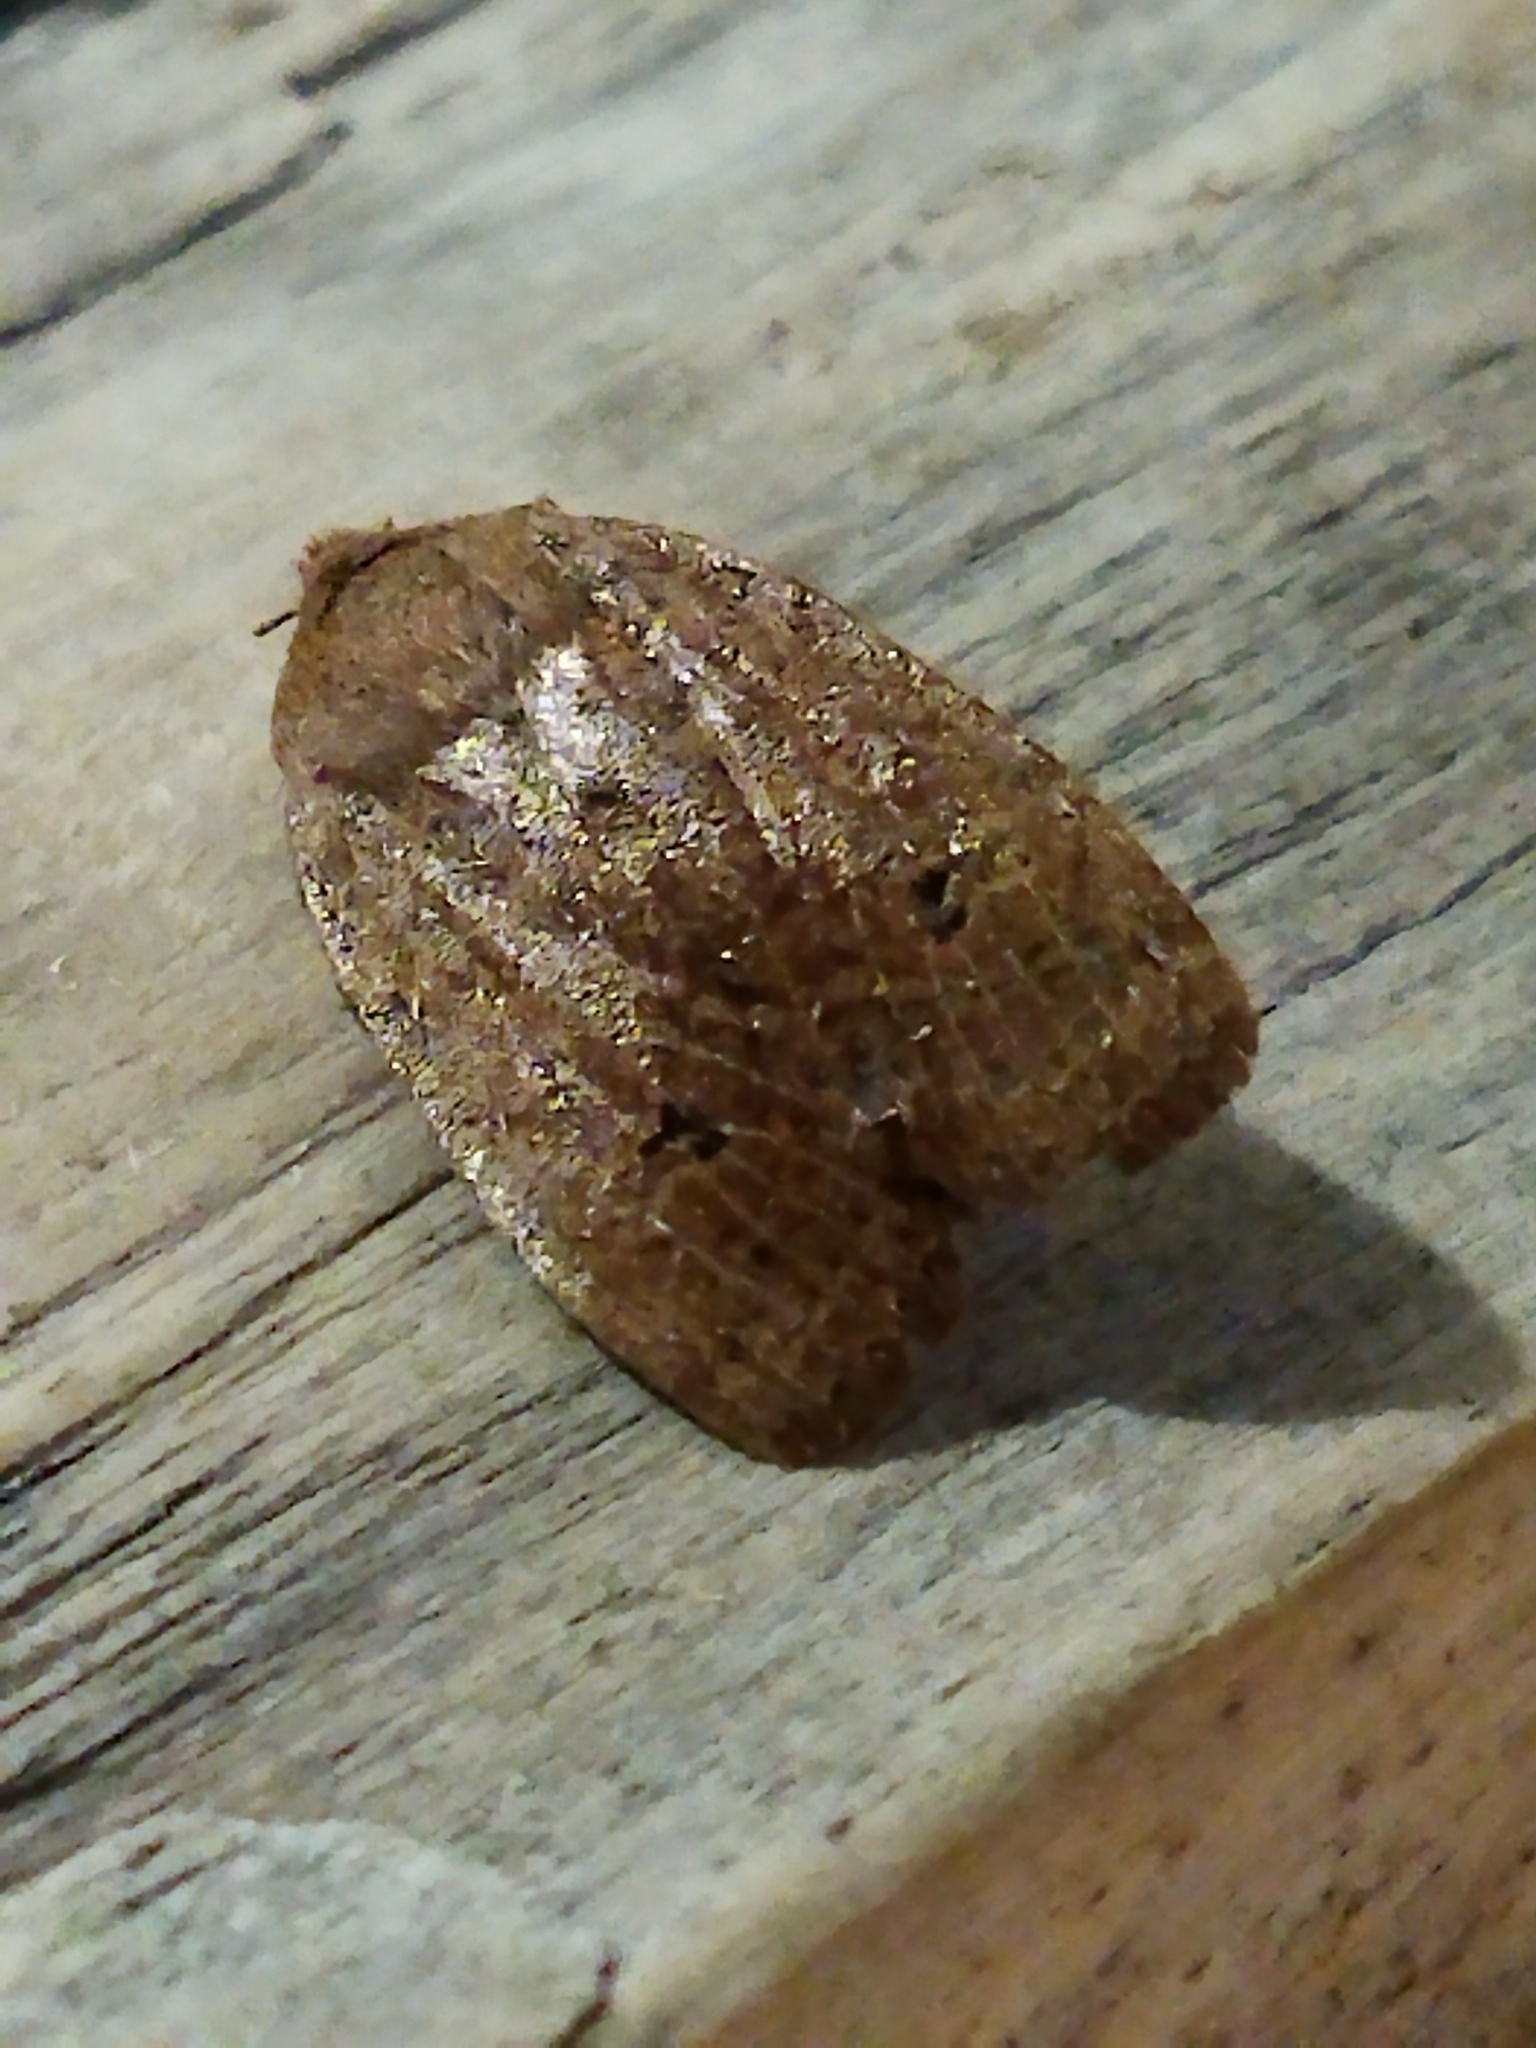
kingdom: Animalia
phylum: Arthropoda
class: Insecta
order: Lepidoptera
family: Noctuidae
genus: Conistra
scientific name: Conistra ragusae
